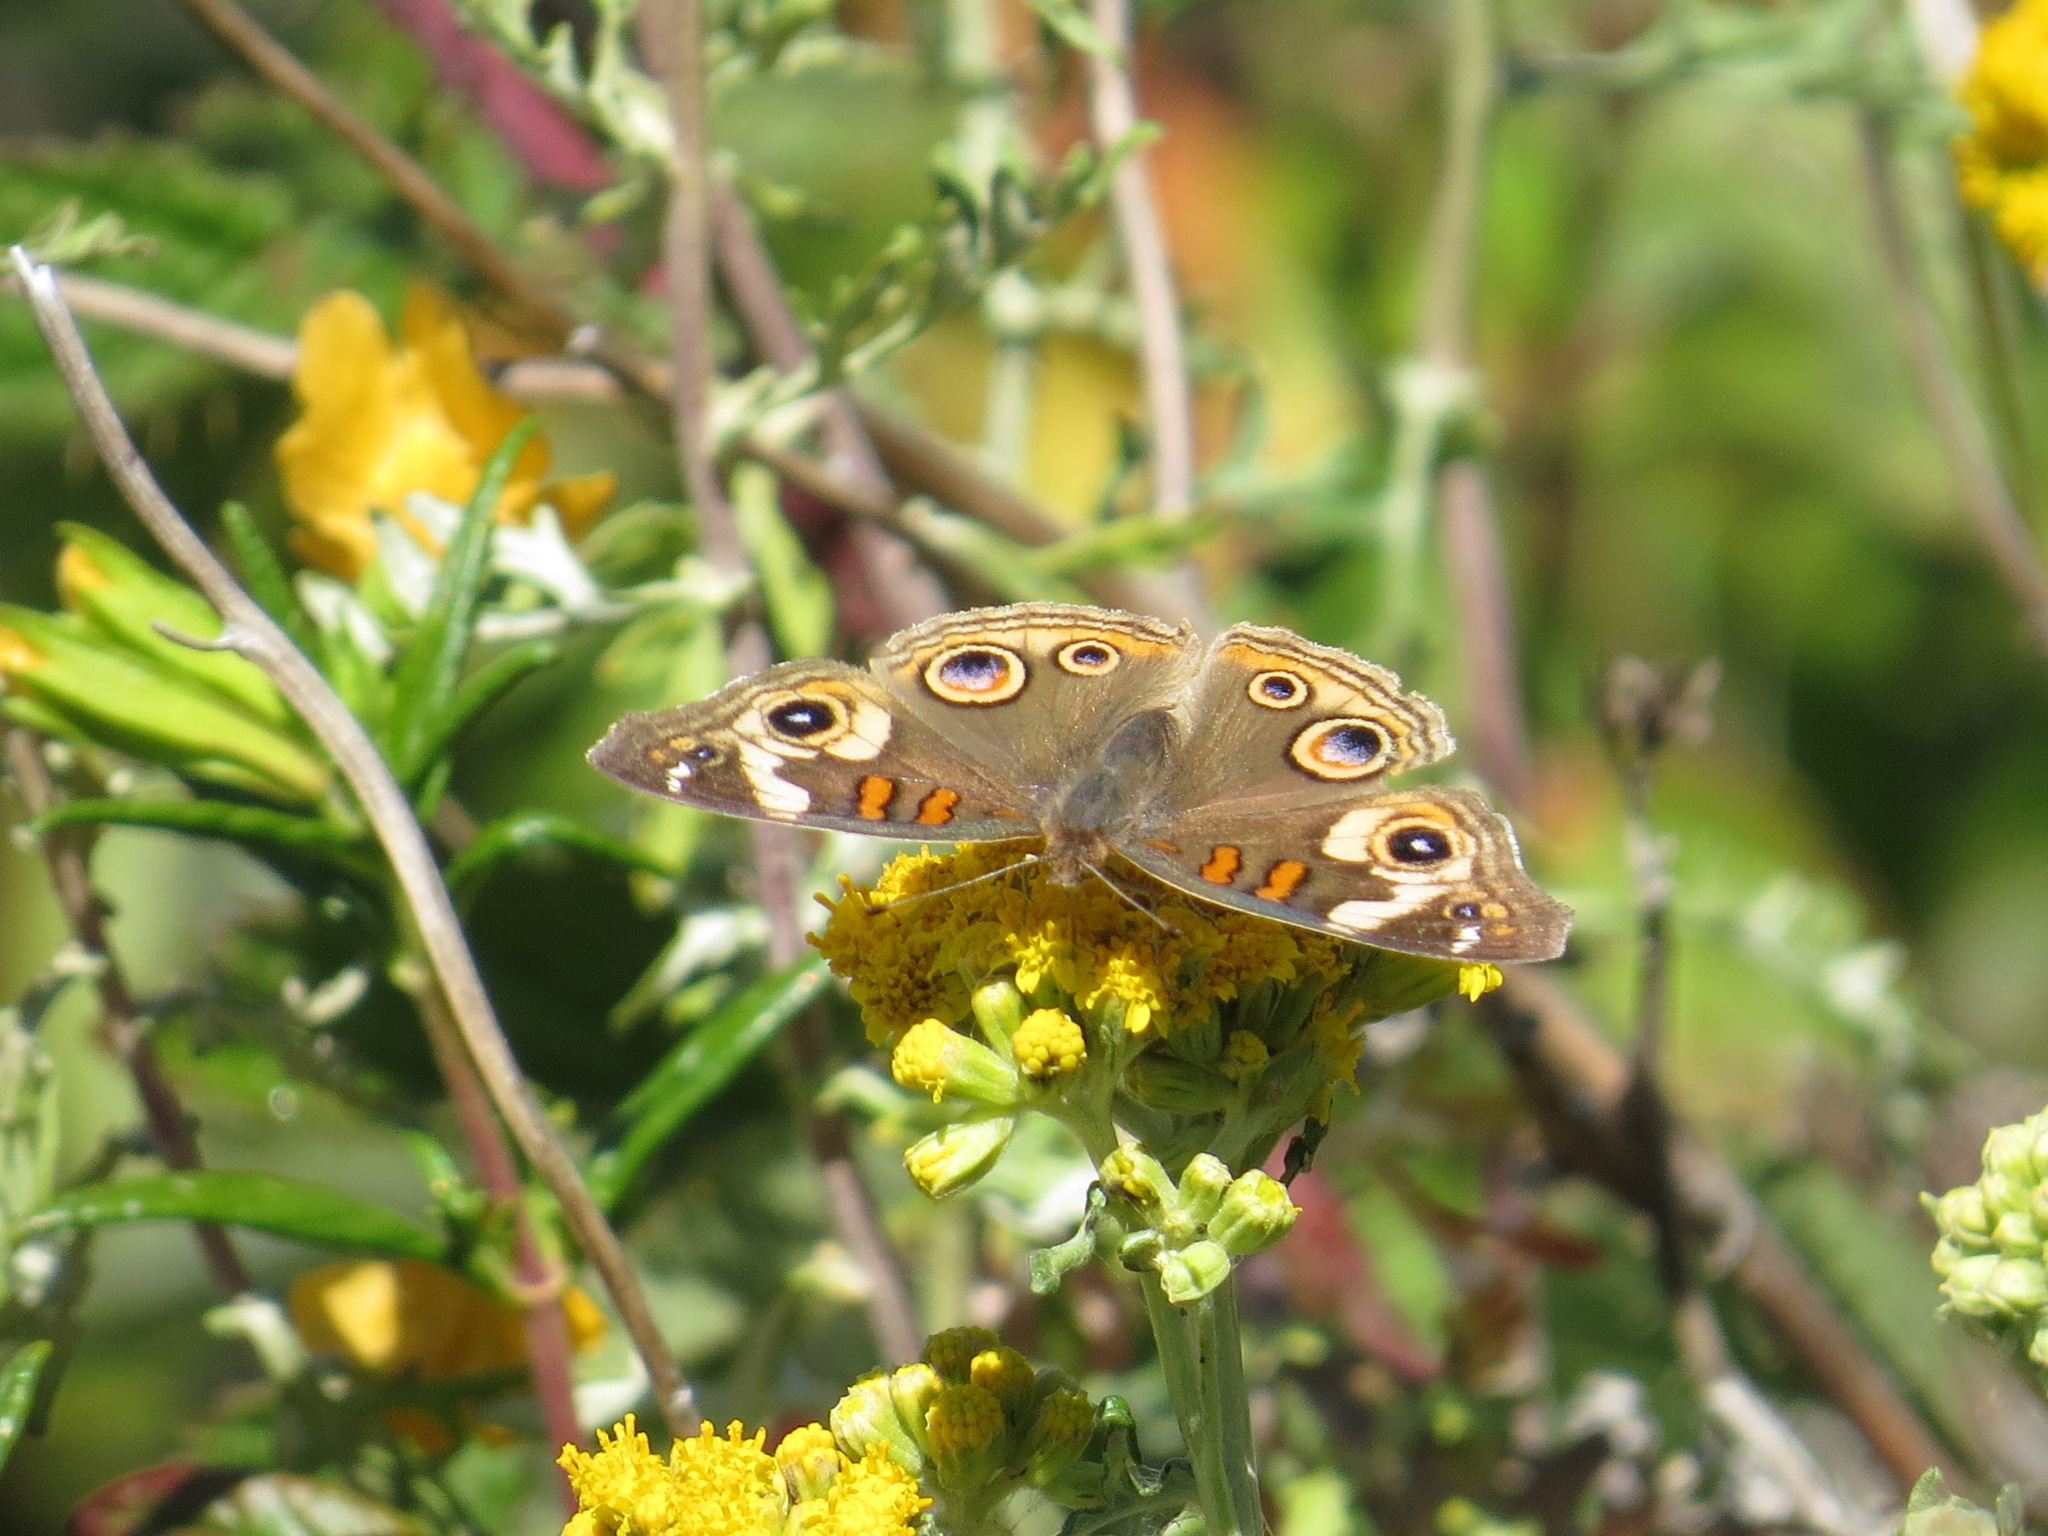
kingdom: Animalia
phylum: Arthropoda
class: Insecta
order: Lepidoptera
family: Nymphalidae
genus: Junonia
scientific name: Junonia grisea
